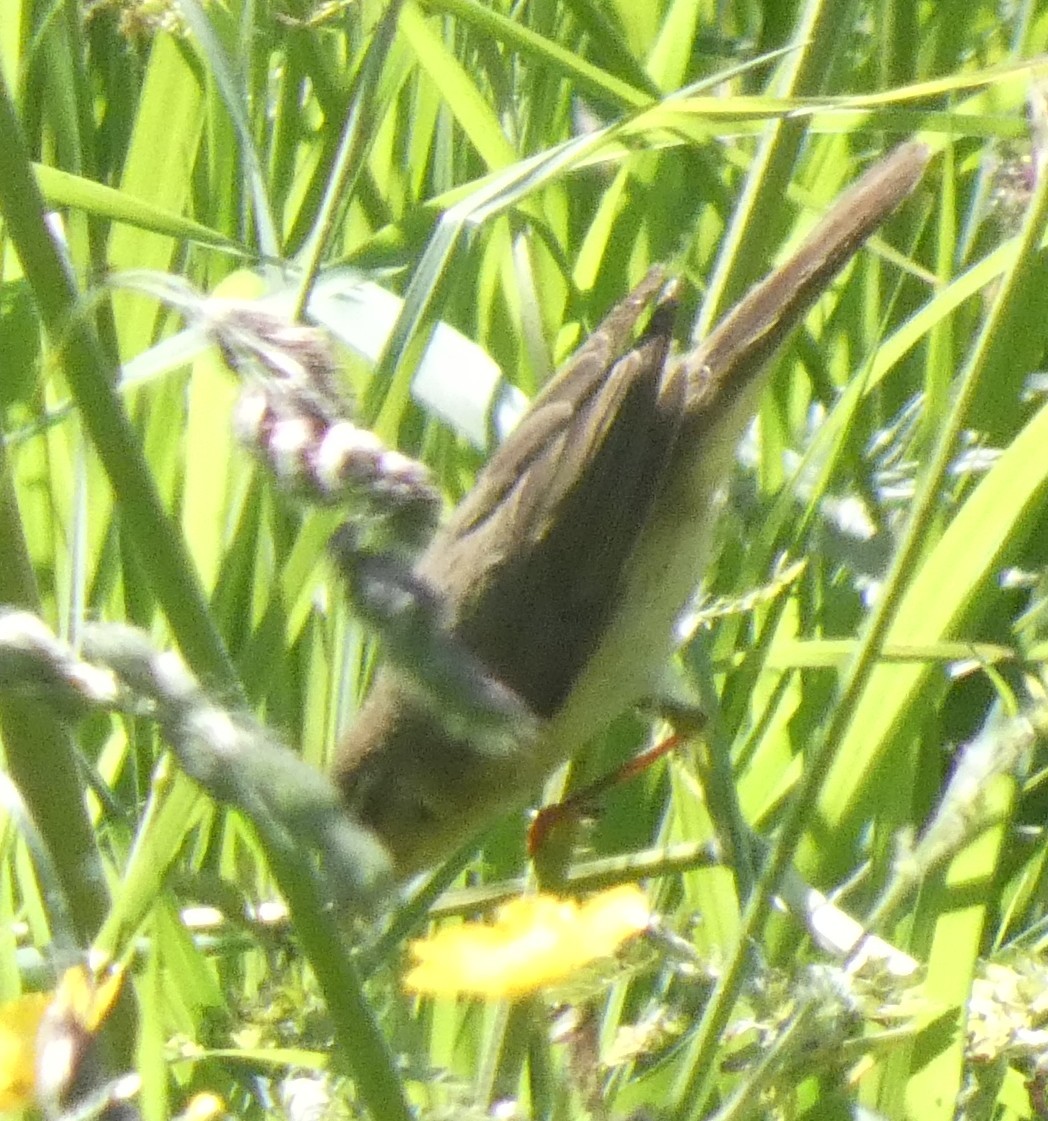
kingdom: Animalia
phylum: Chordata
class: Aves
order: Passeriformes
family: Phylloscopidae
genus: Phylloscopus
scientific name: Phylloscopus trochilus
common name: Willow warbler
